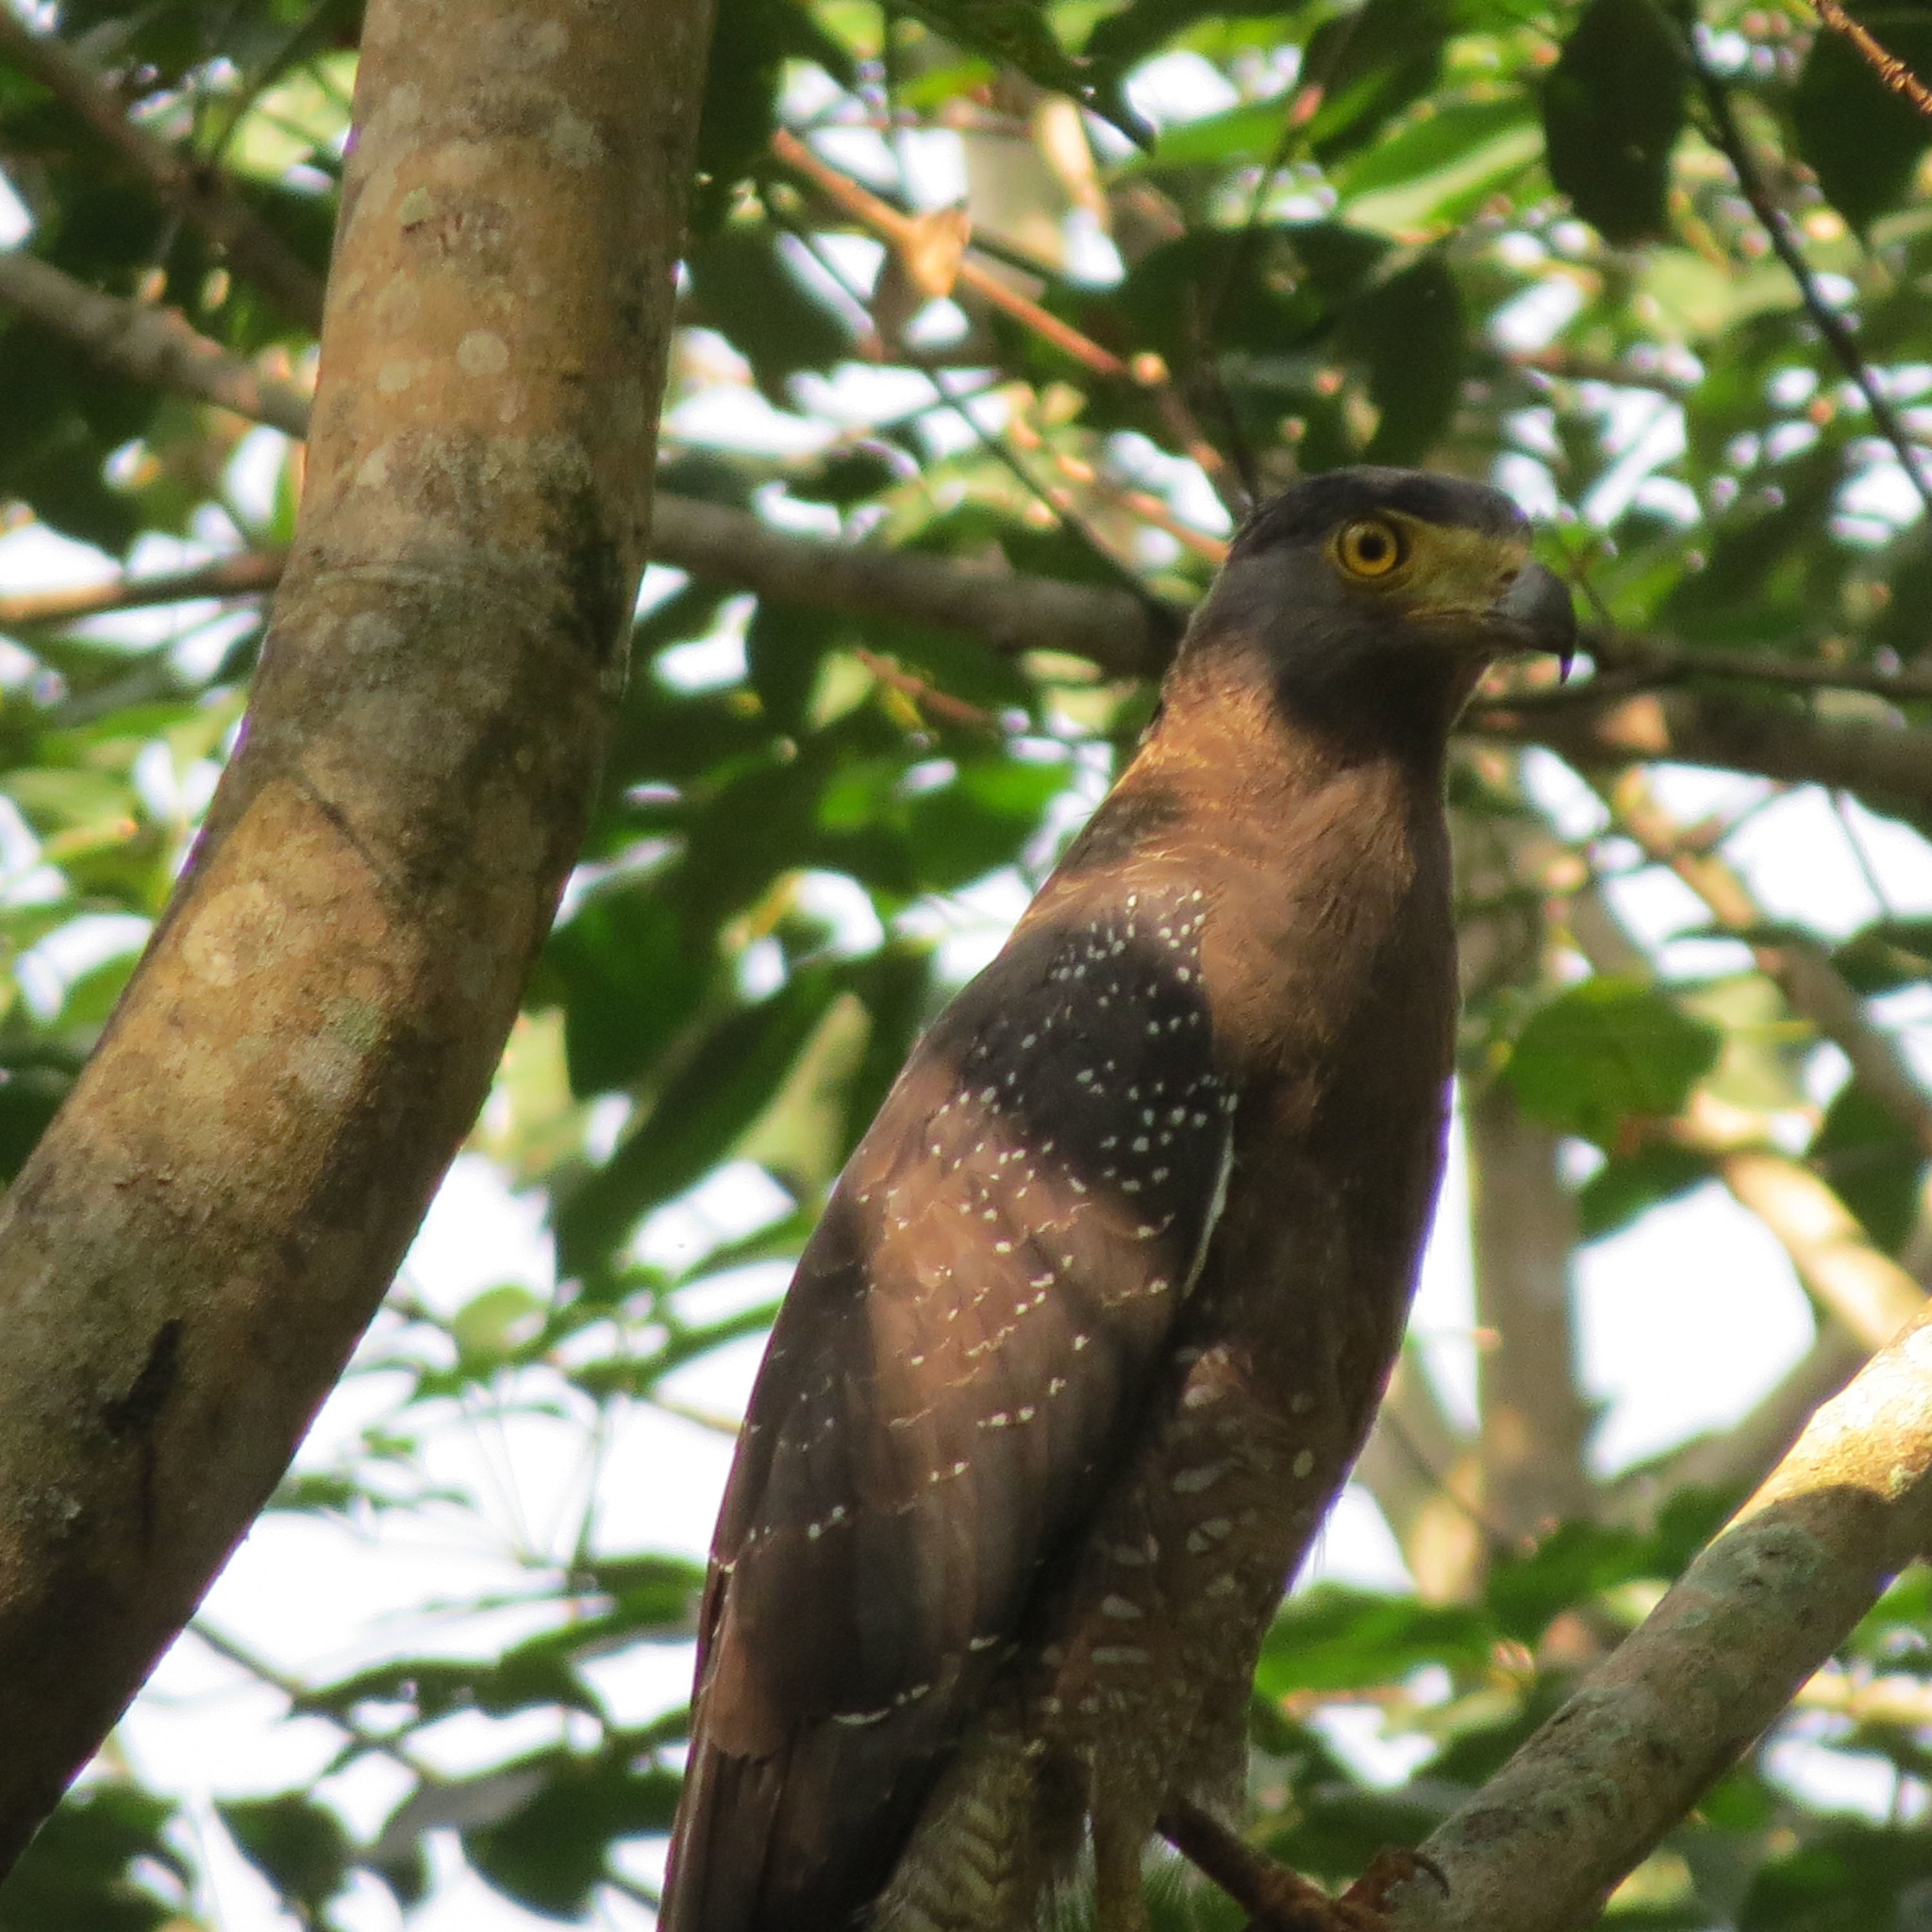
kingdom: Animalia
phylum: Chordata
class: Aves
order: Accipitriformes
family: Accipitridae
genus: Spilornis
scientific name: Spilornis cheela
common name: Crested serpent eagle
